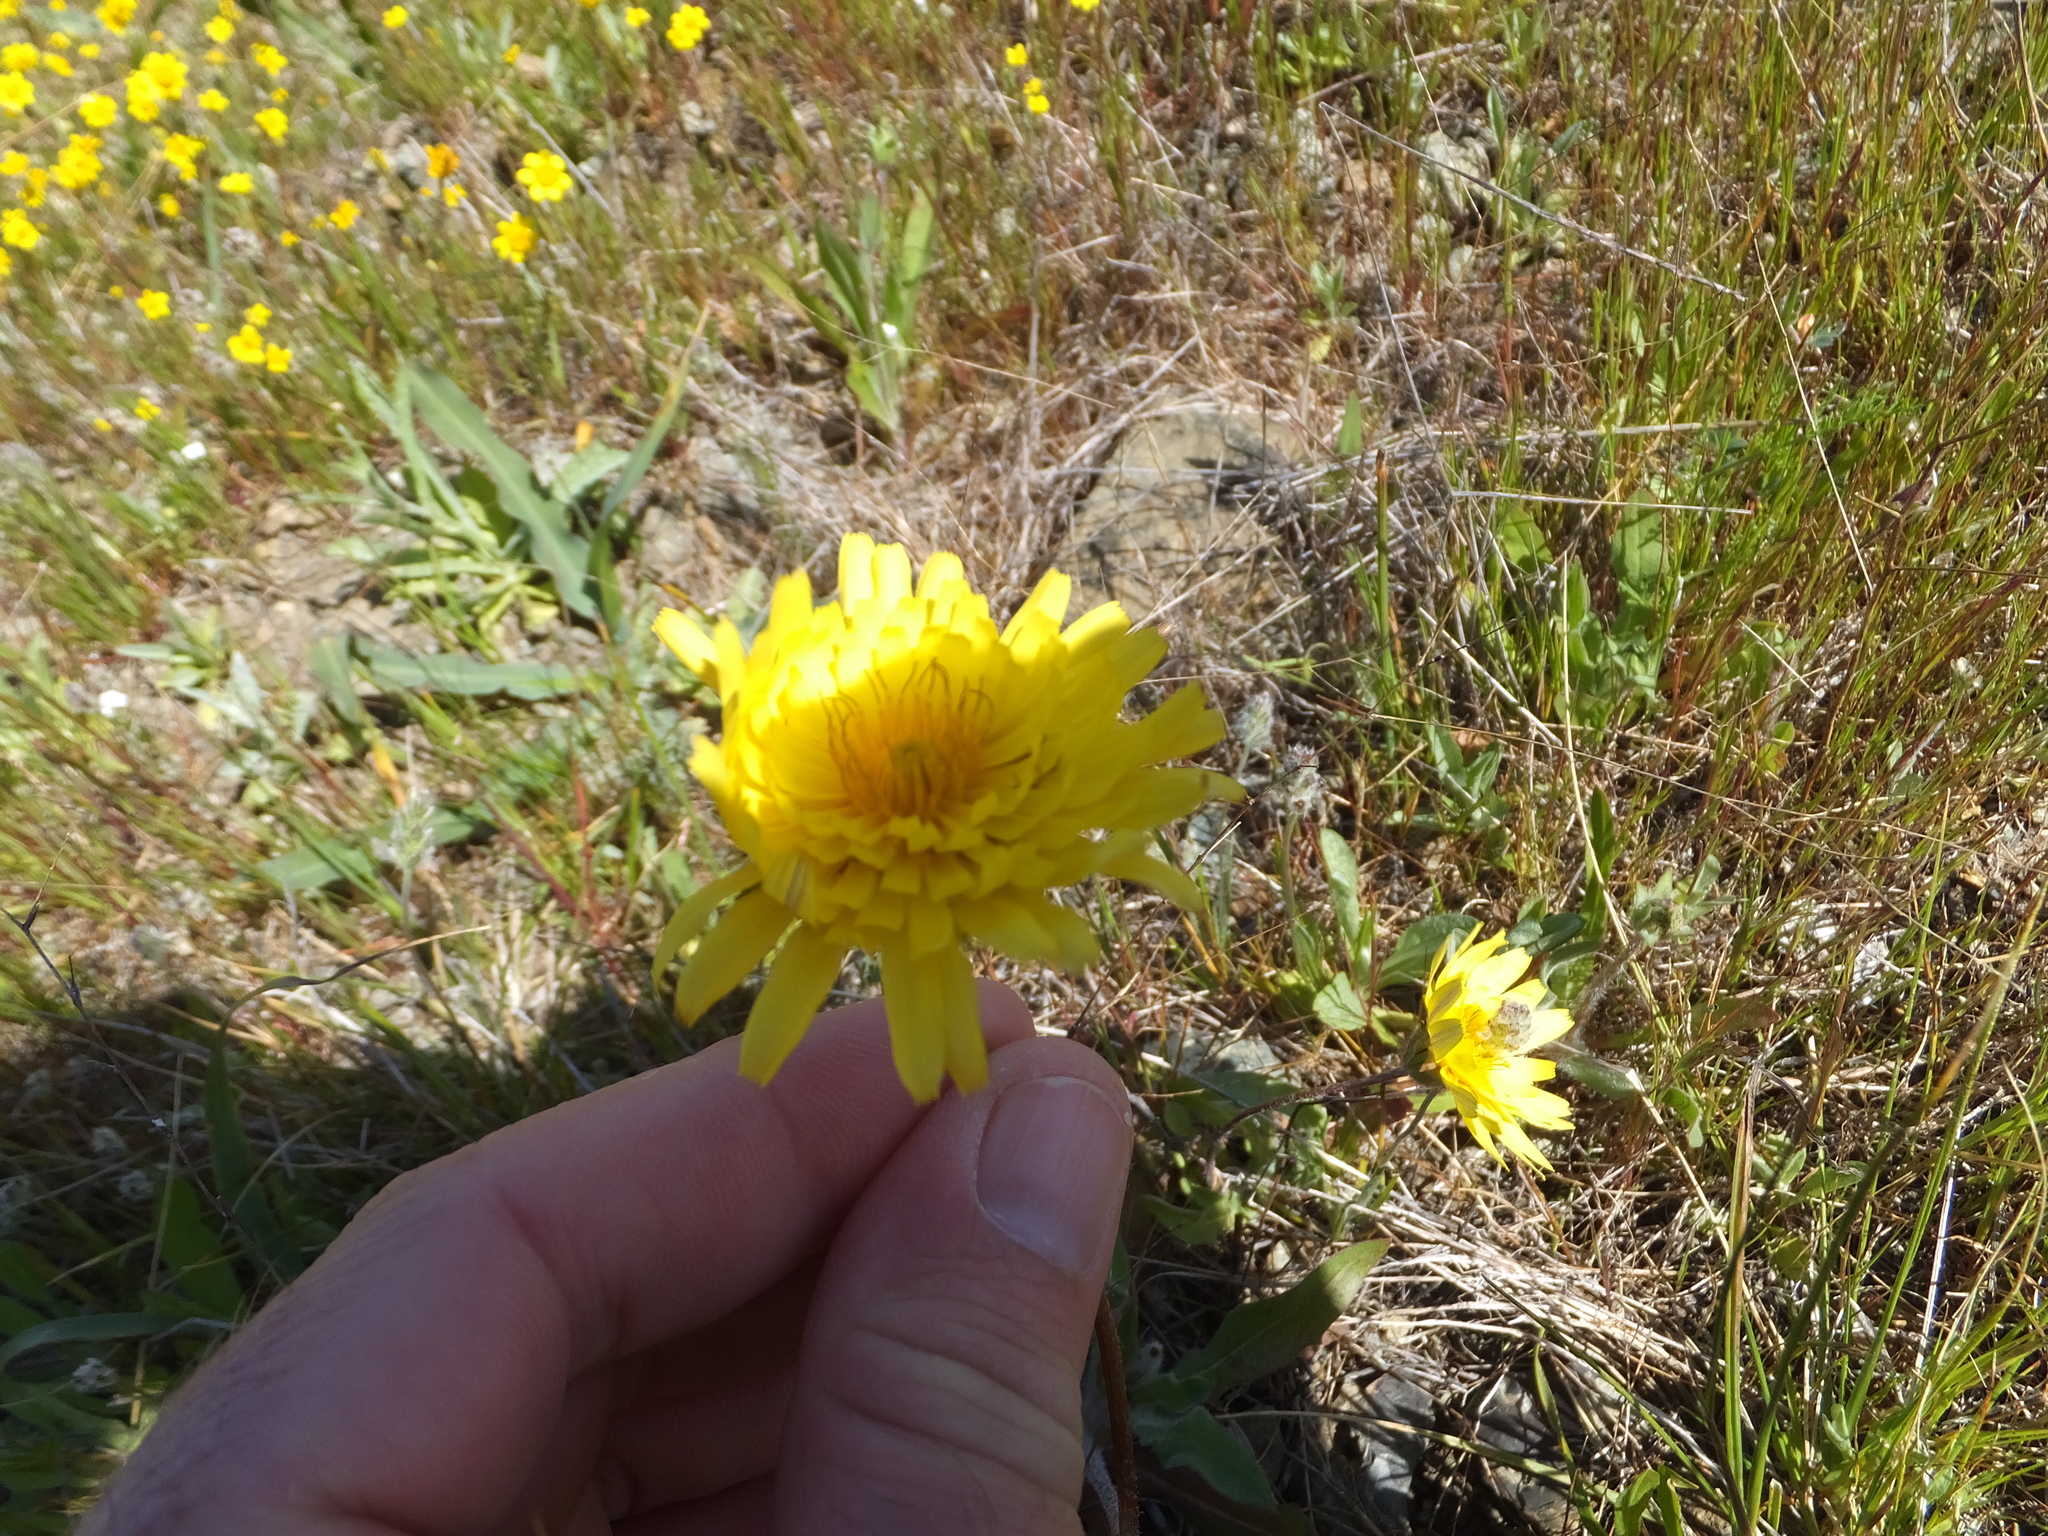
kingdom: Plantae
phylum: Tracheophyta
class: Magnoliopsida
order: Asterales
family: Asteraceae
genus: Agoseris
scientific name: Agoseris heterophylla
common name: Annual agoseris
